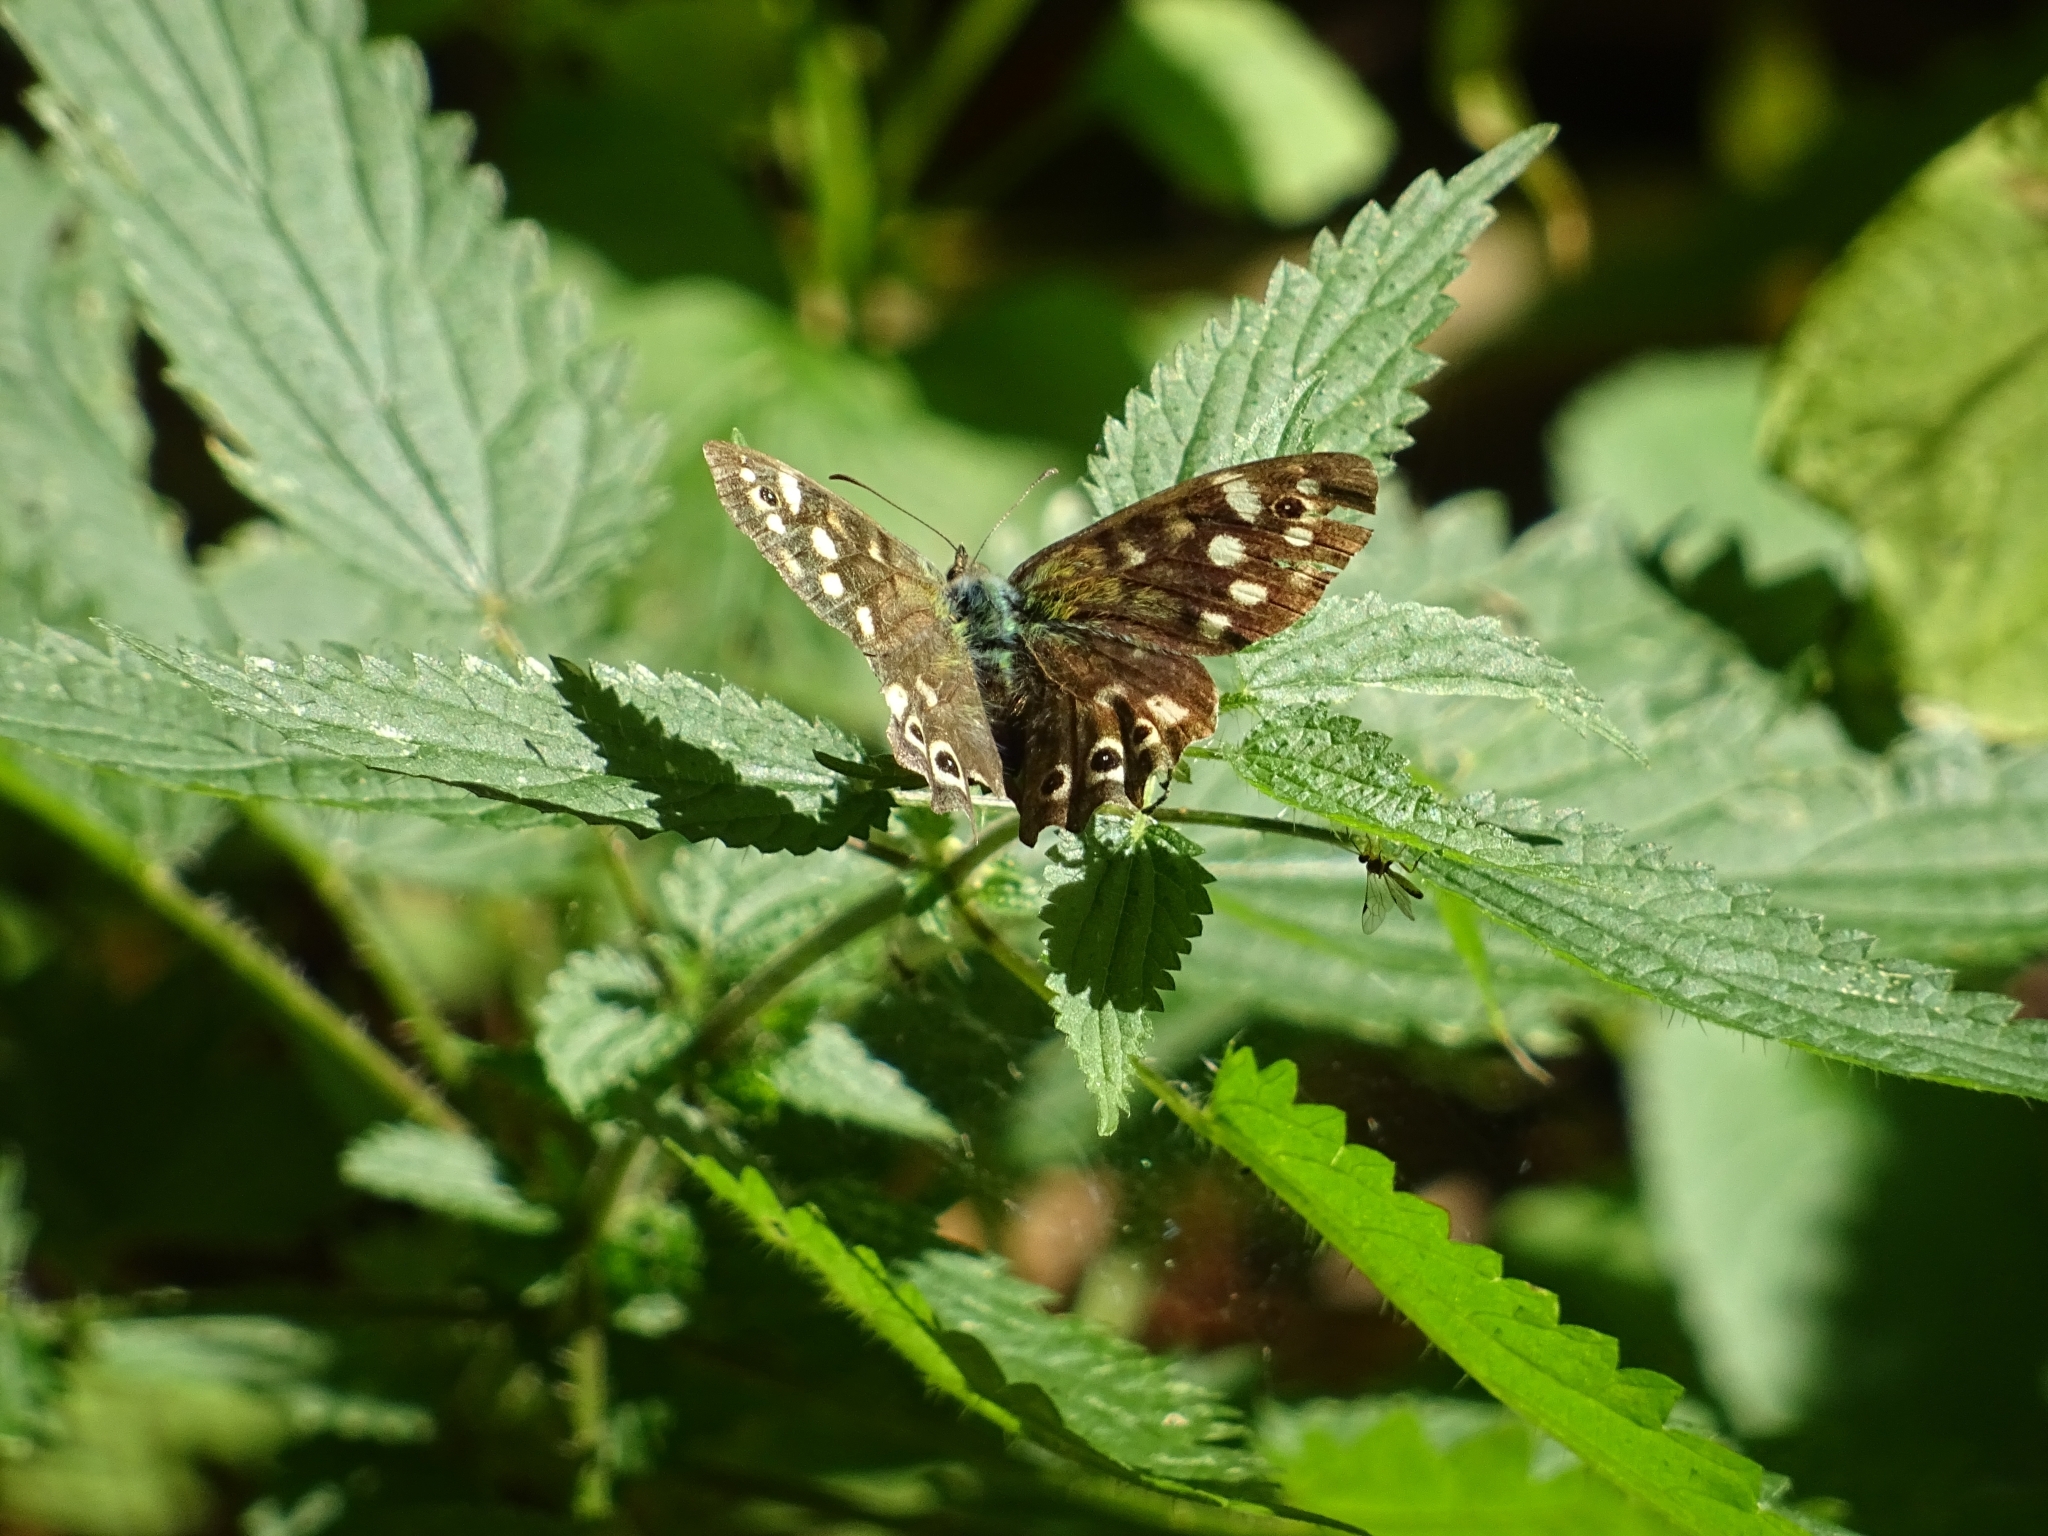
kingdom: Animalia
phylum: Arthropoda
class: Insecta
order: Lepidoptera
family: Nymphalidae
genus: Pararge
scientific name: Pararge aegeria
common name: Speckled wood
